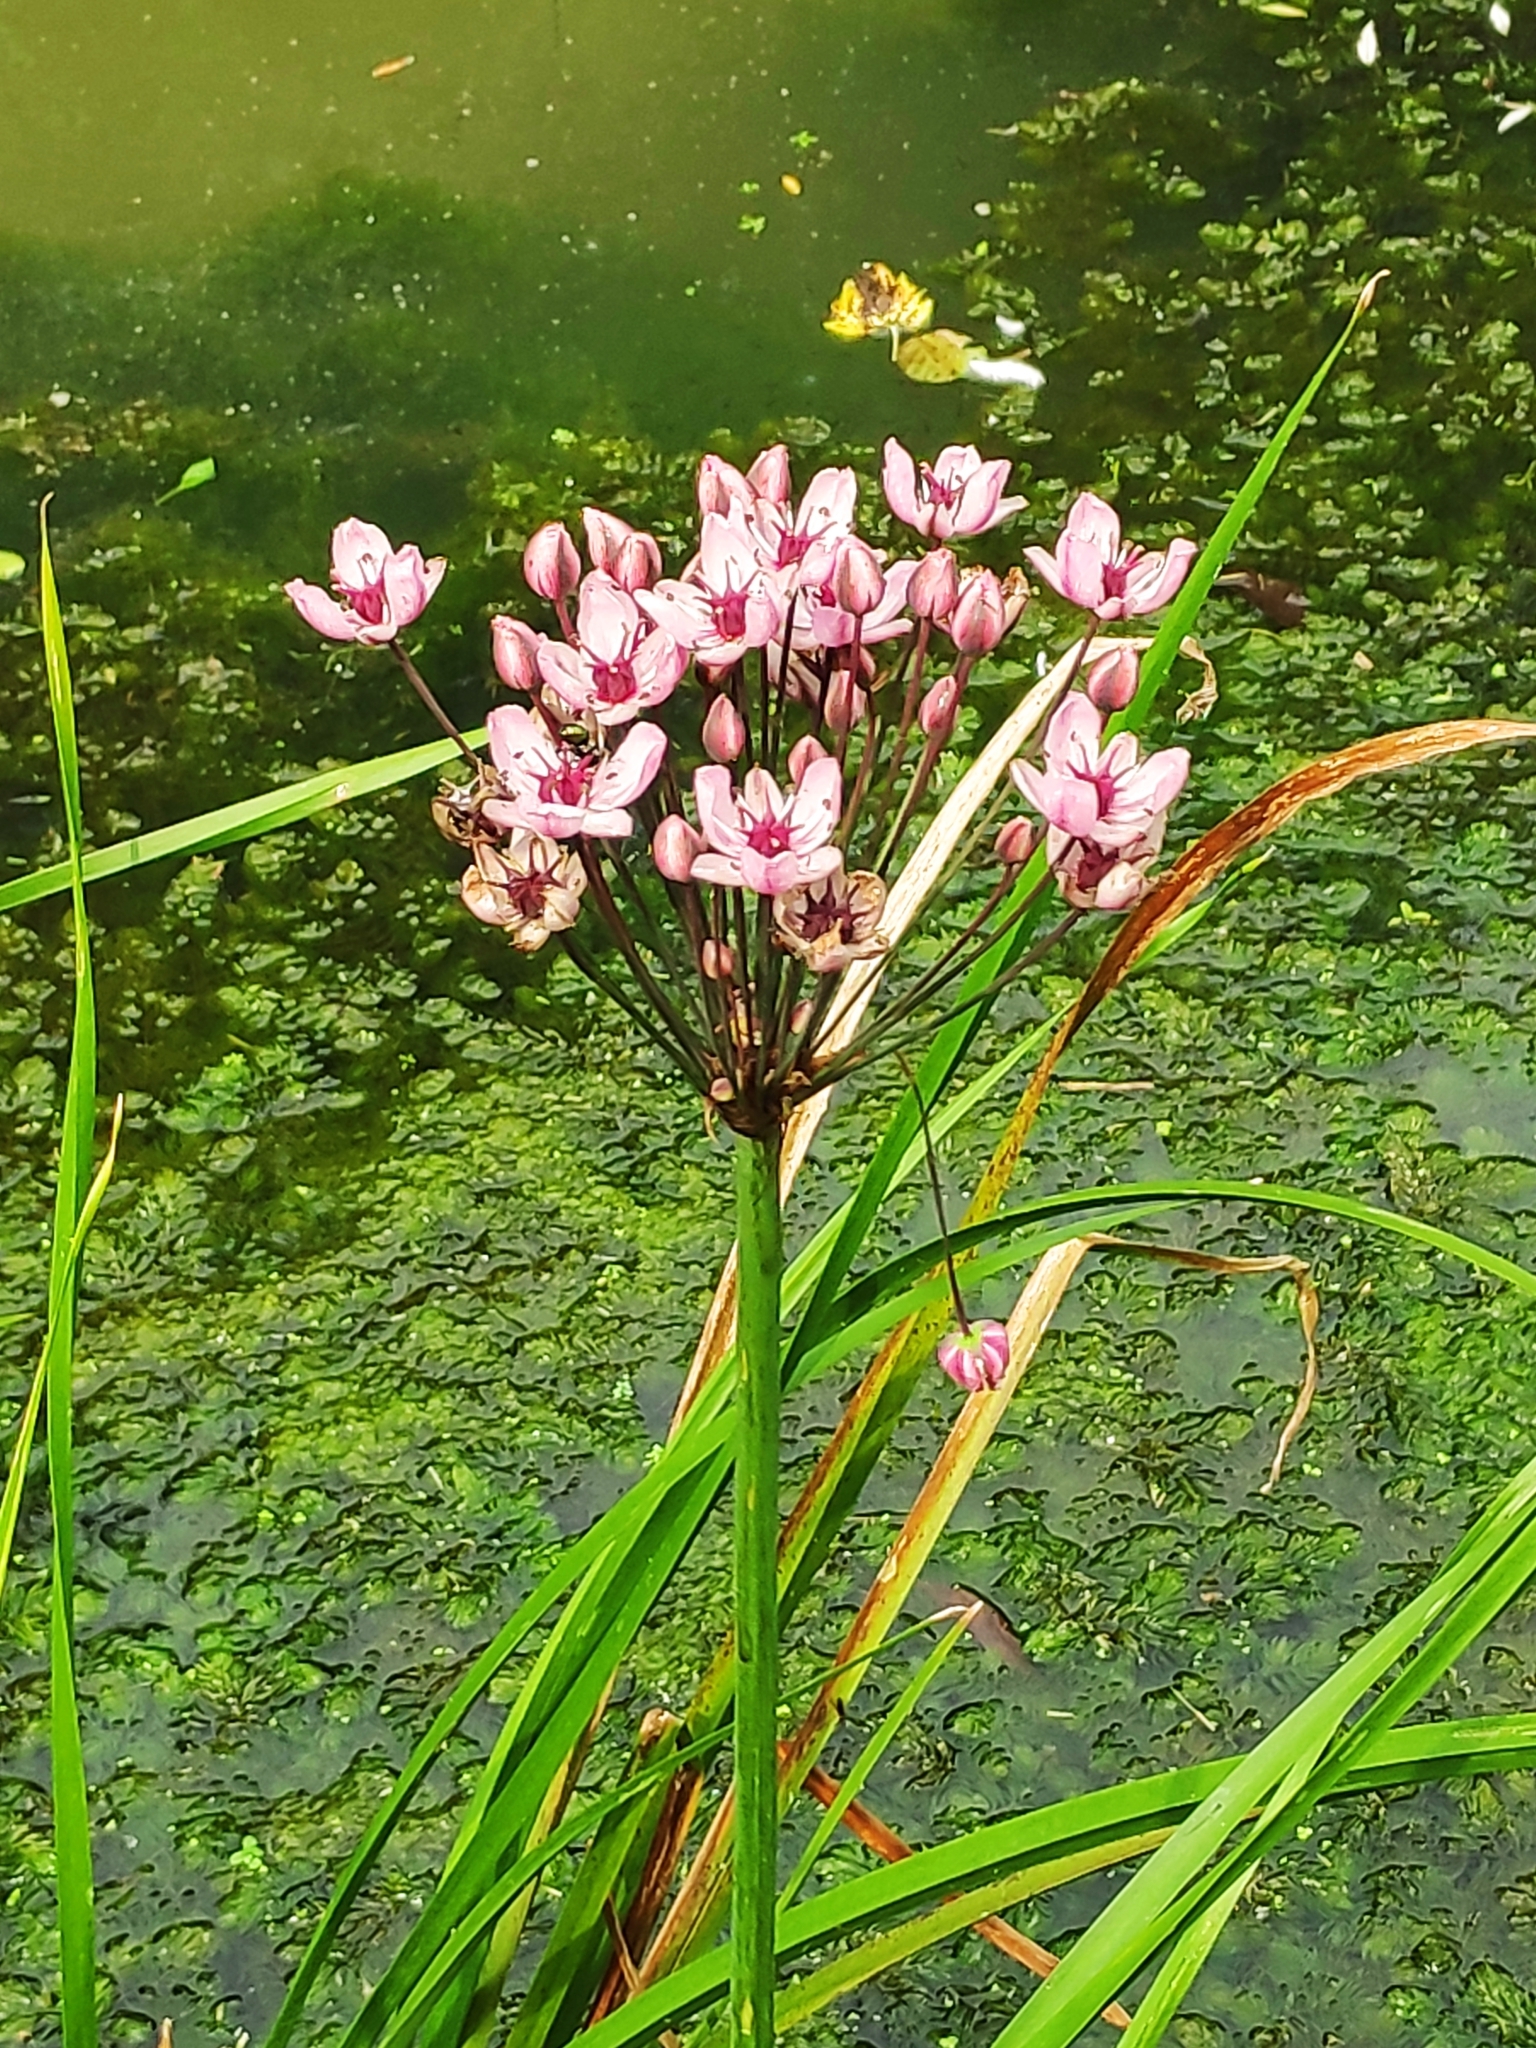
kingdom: Plantae
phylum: Tracheophyta
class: Liliopsida
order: Alismatales
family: Butomaceae
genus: Butomus
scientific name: Butomus umbellatus
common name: Flowering-rush
